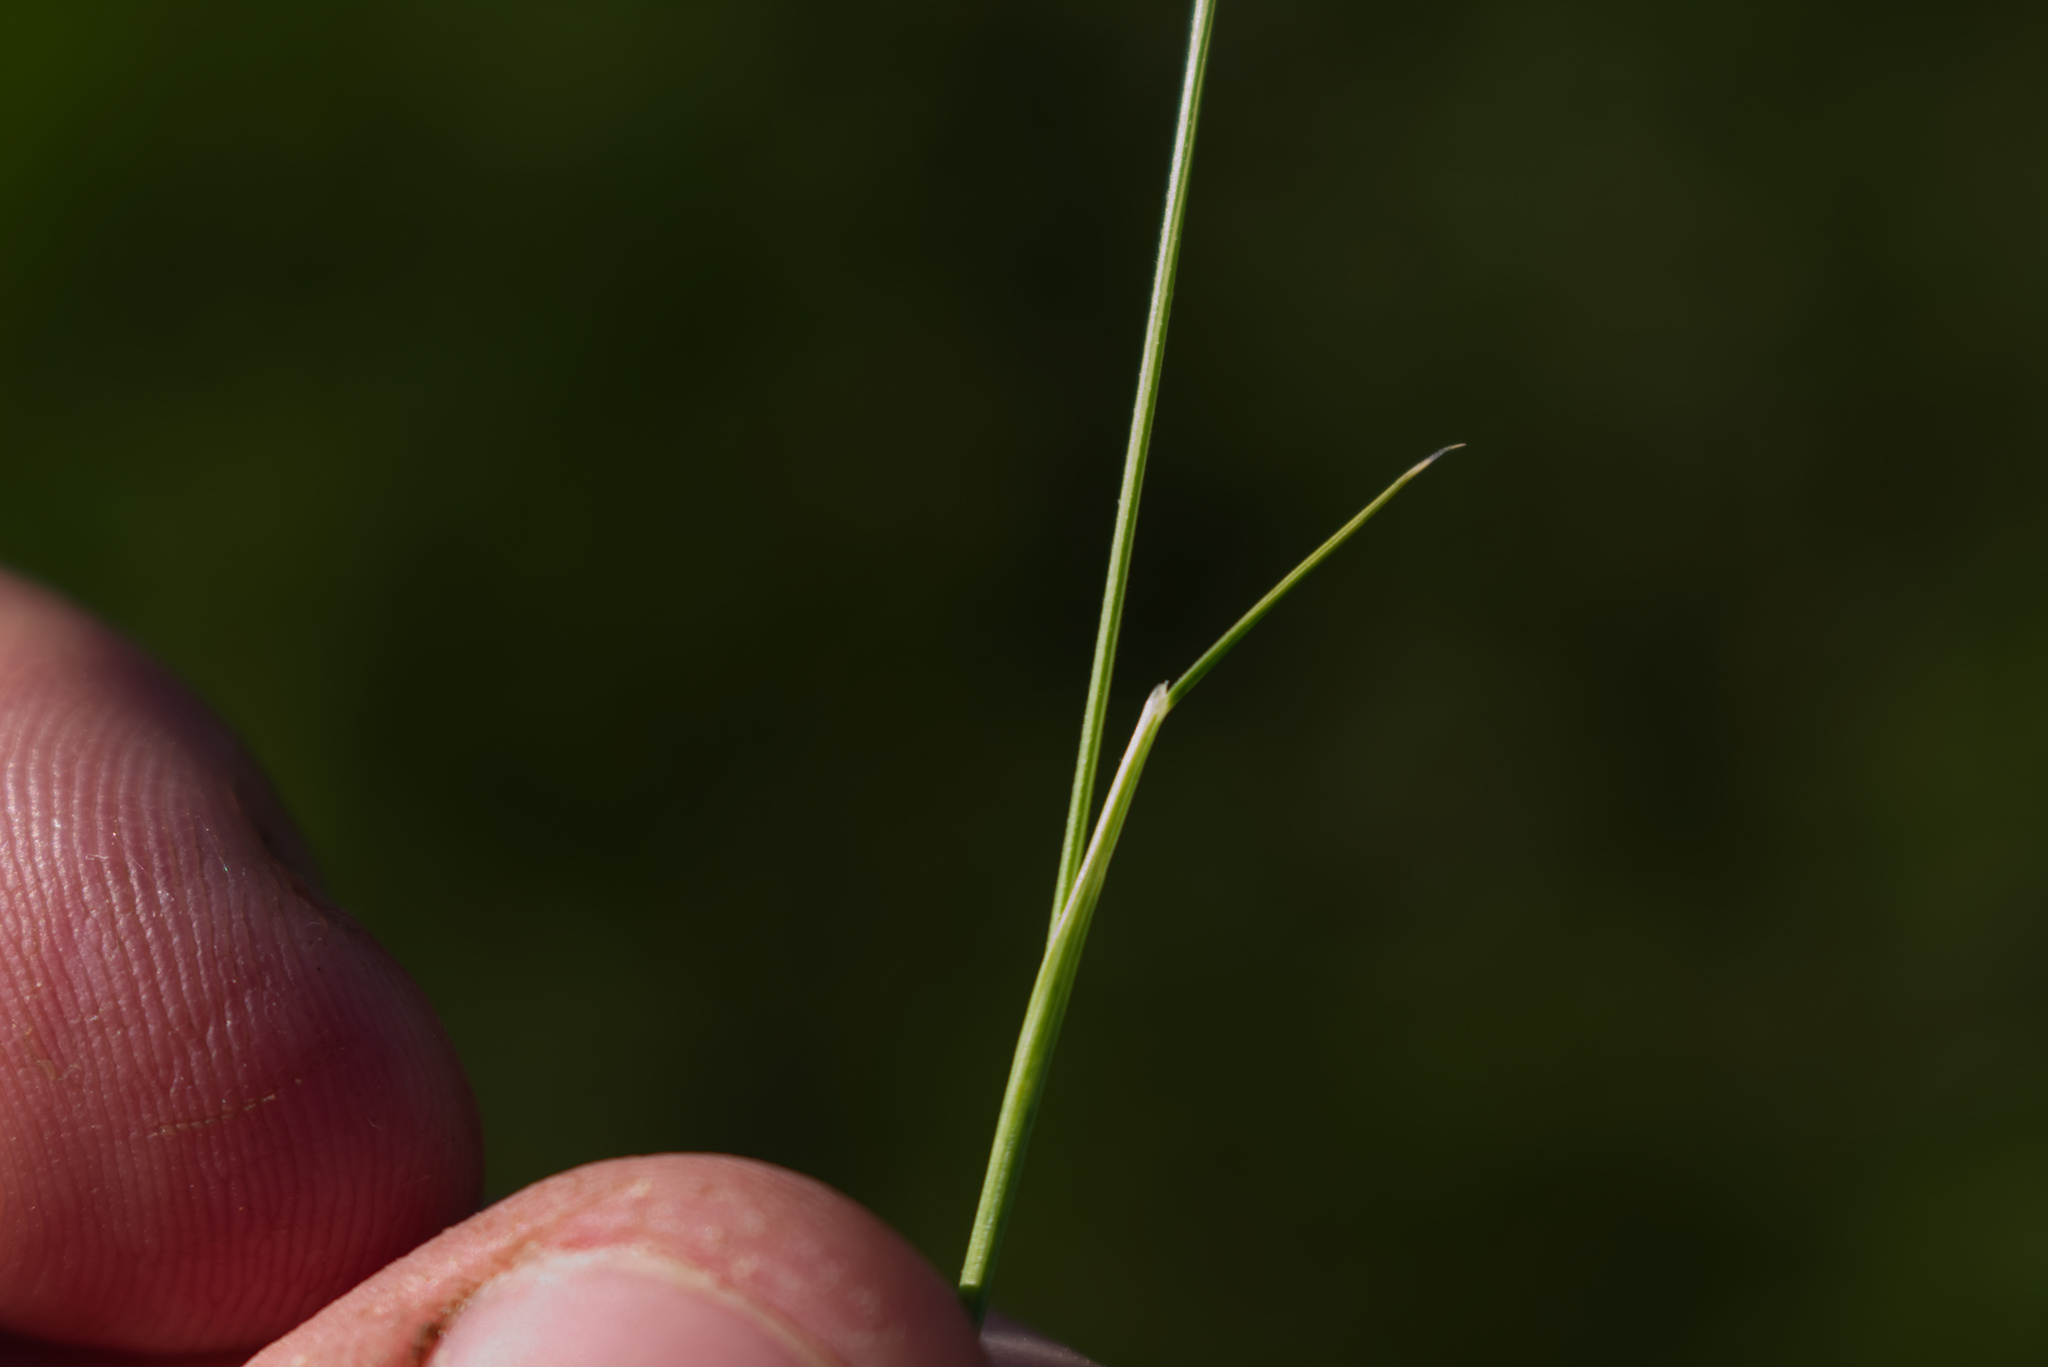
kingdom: Plantae
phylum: Tracheophyta
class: Liliopsida
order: Poales
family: Poaceae
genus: Nardus
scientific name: Nardus stricta
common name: Mat-grass
